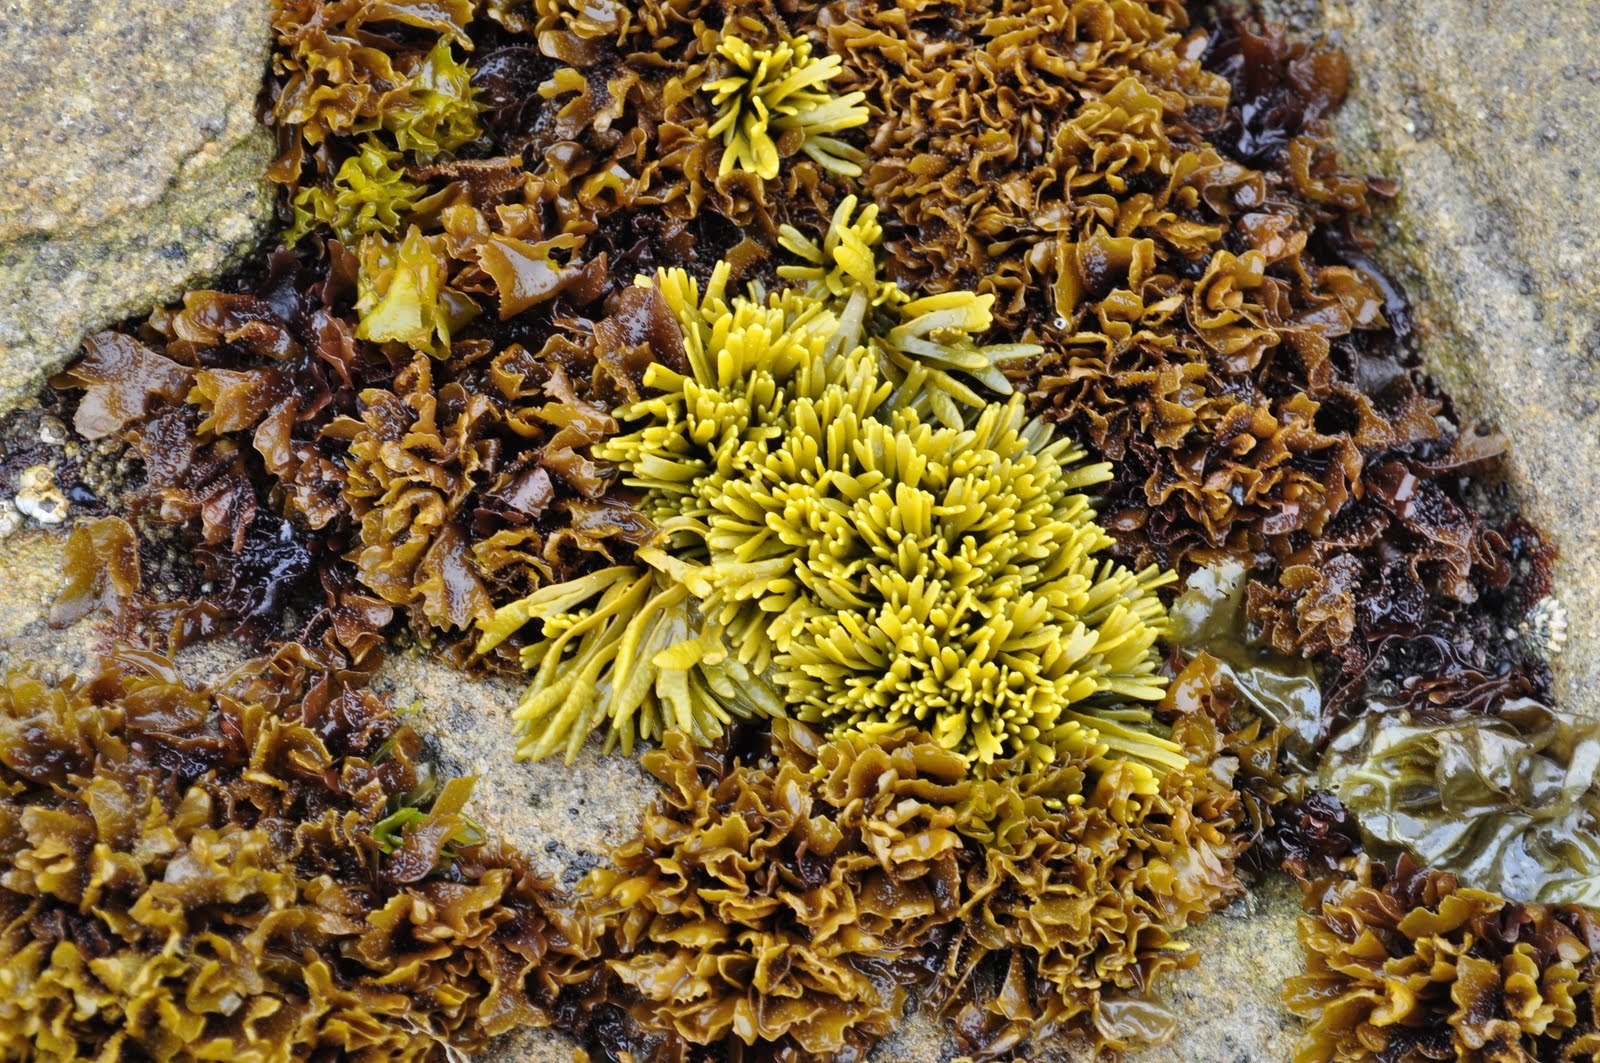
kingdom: Chromista
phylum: Ochrophyta
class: Phaeophyceae
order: Fucales
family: Fucaceae
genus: Pelvetiopsis
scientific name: Pelvetiopsis limitata
